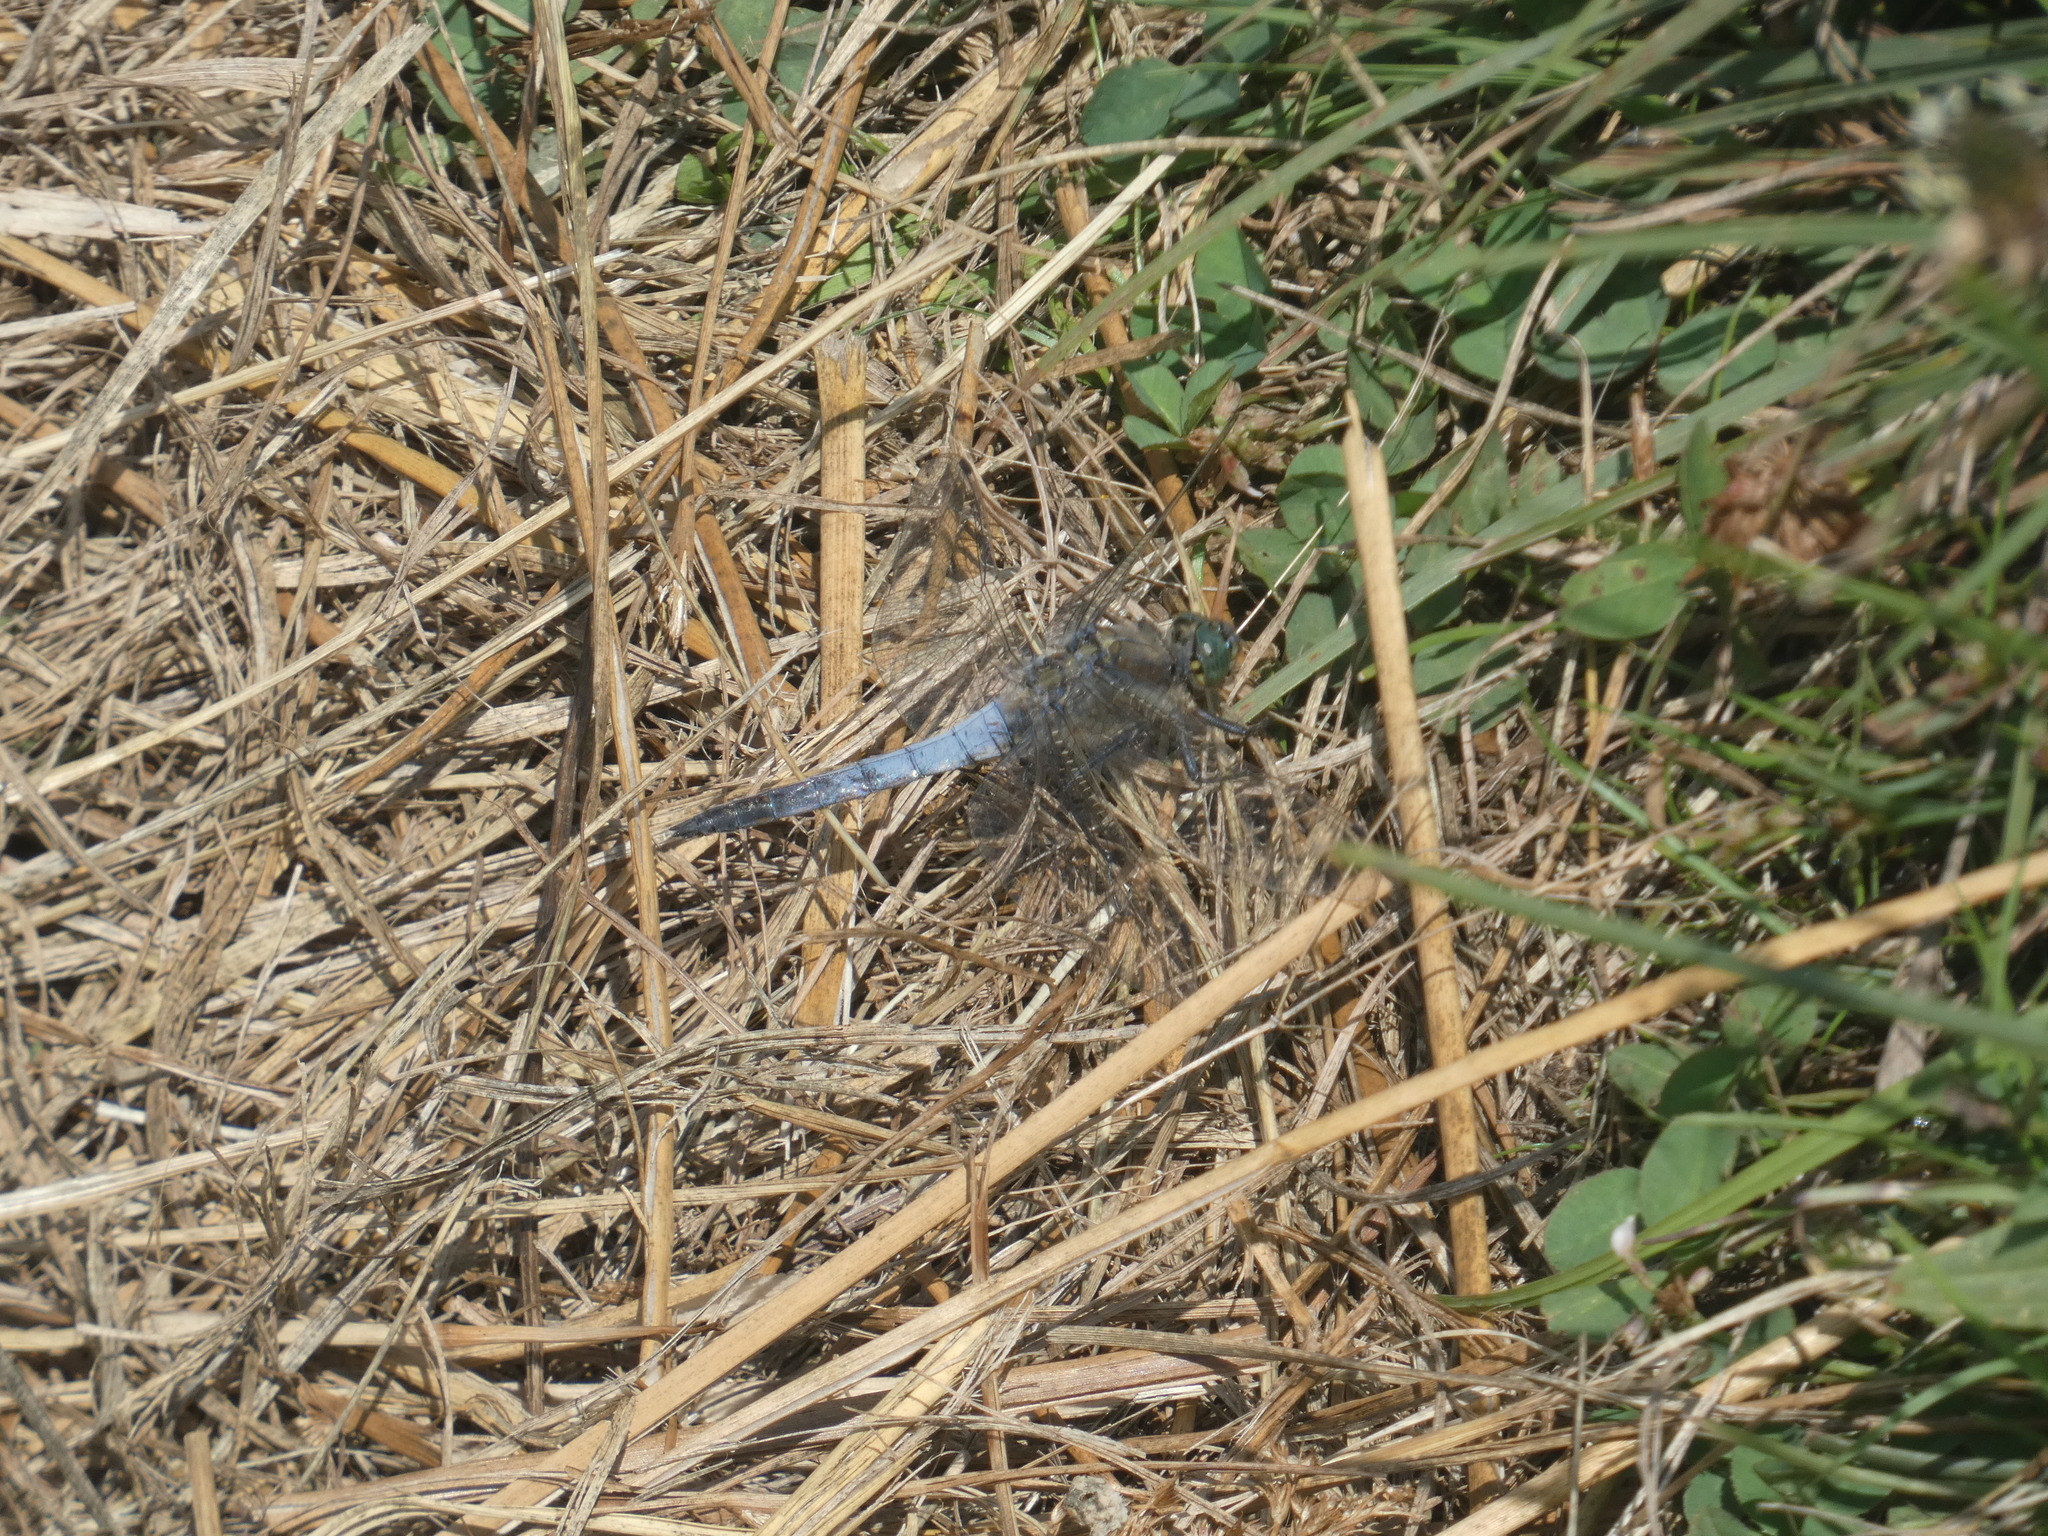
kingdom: Animalia
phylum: Arthropoda
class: Insecta
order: Odonata
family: Libellulidae
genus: Orthetrum
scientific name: Orthetrum cancellatum
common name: Black-tailed skimmer
